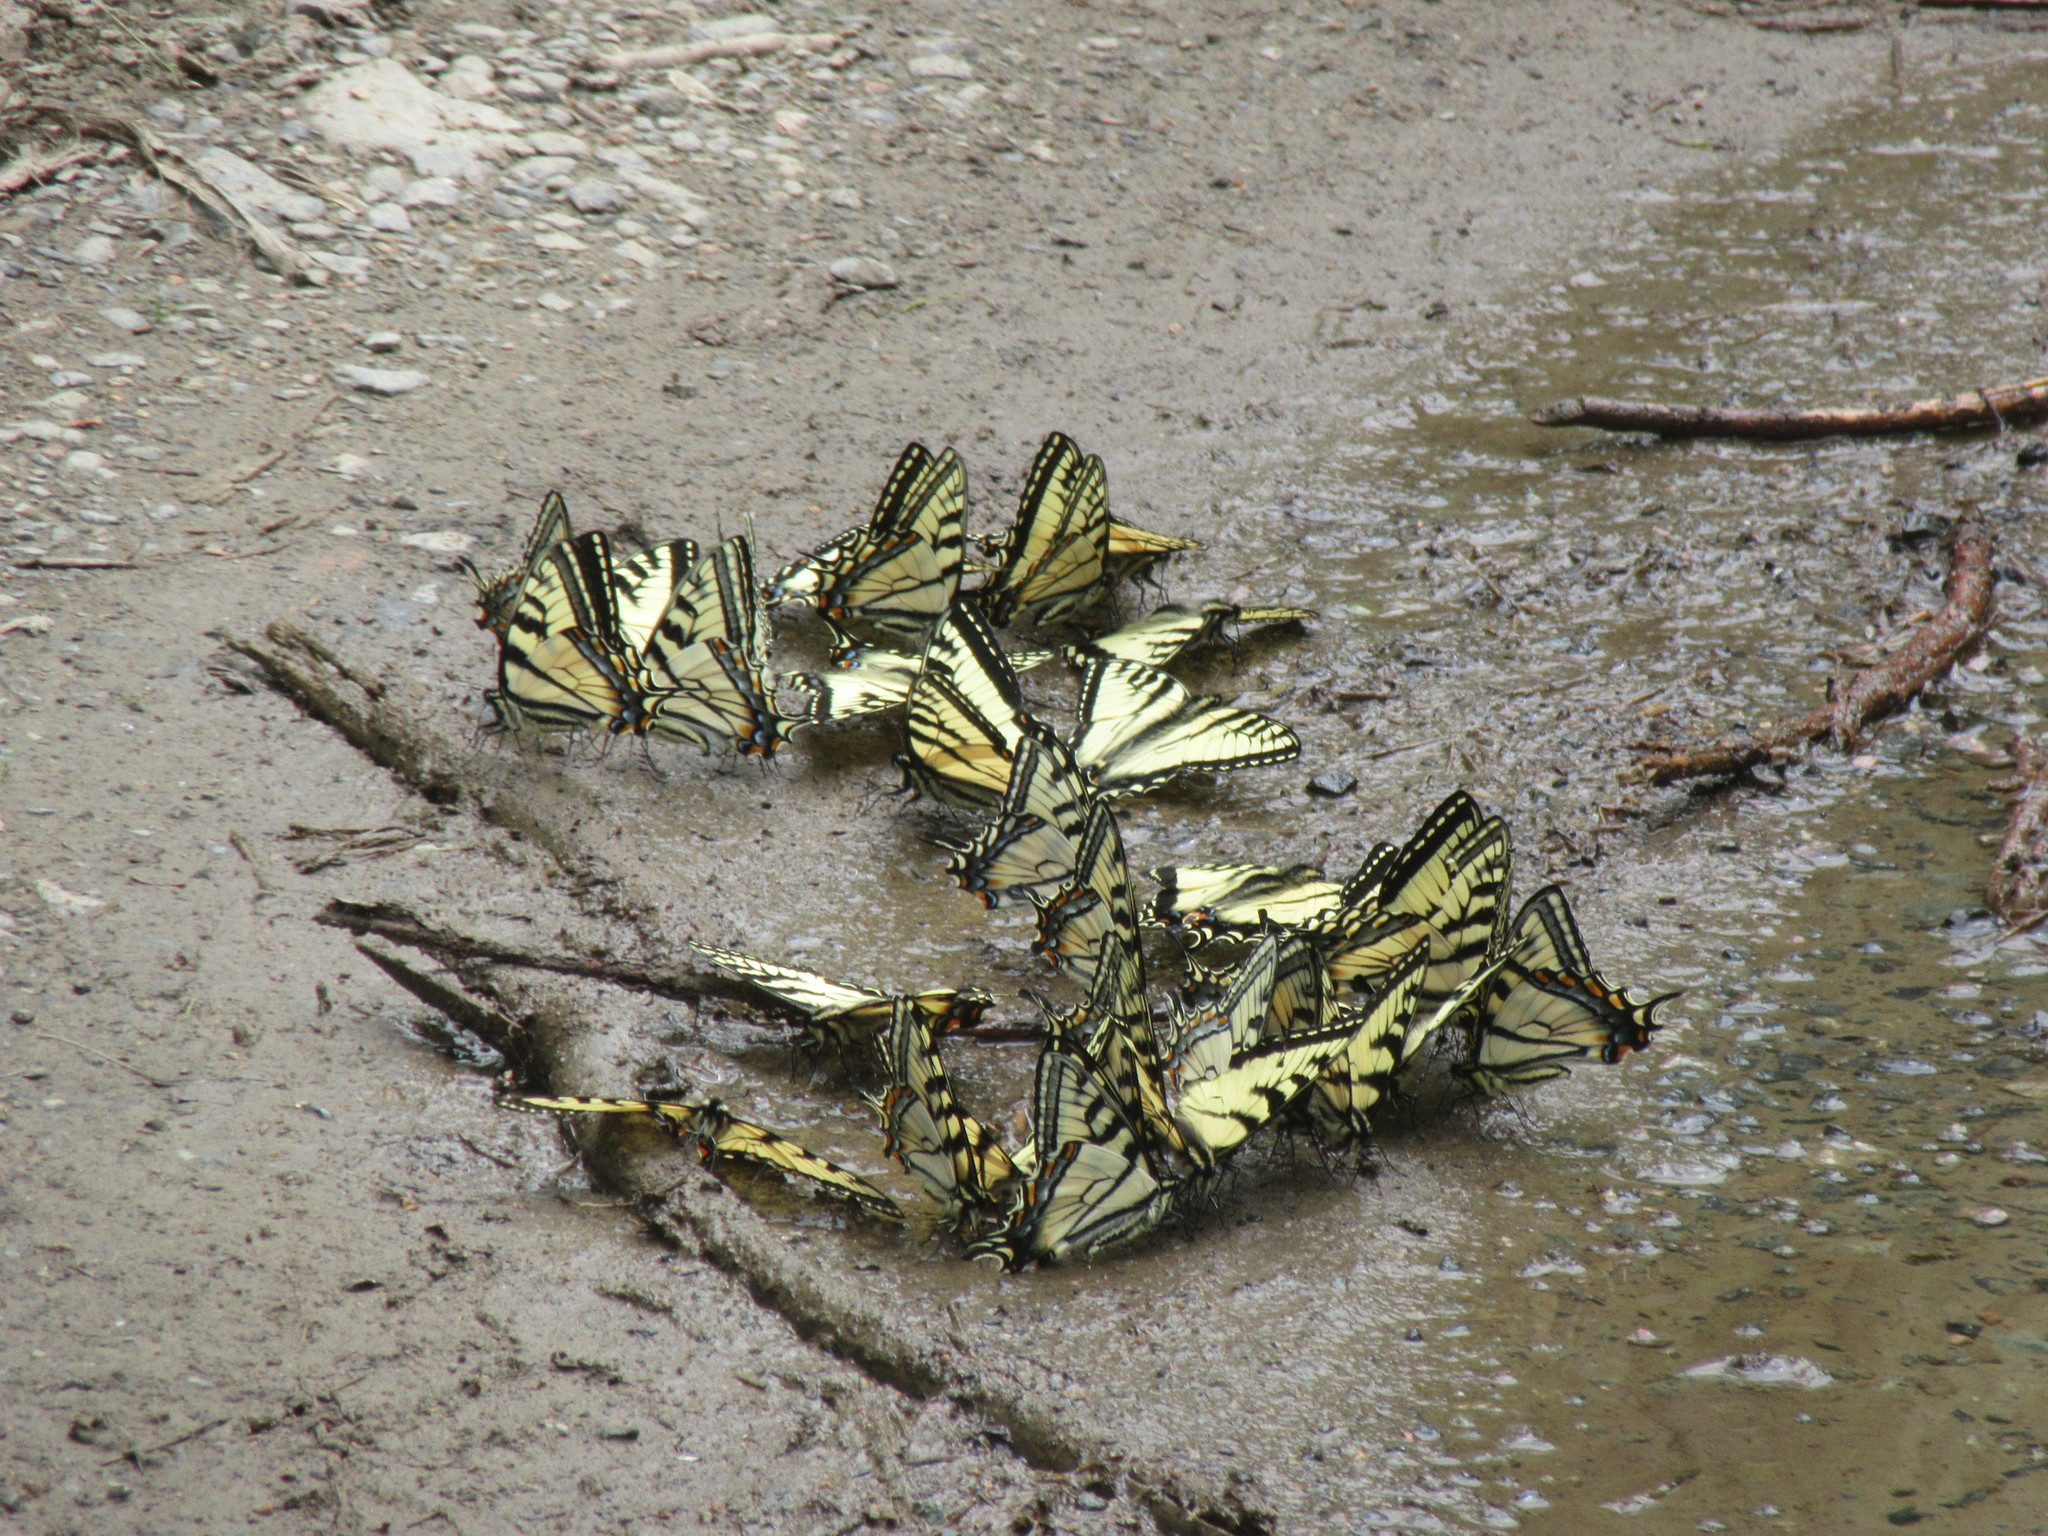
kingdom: Animalia
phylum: Arthropoda
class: Insecta
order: Lepidoptera
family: Papilionidae
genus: Papilio
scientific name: Papilio canadensis
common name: Canadian tiger swallowtail
